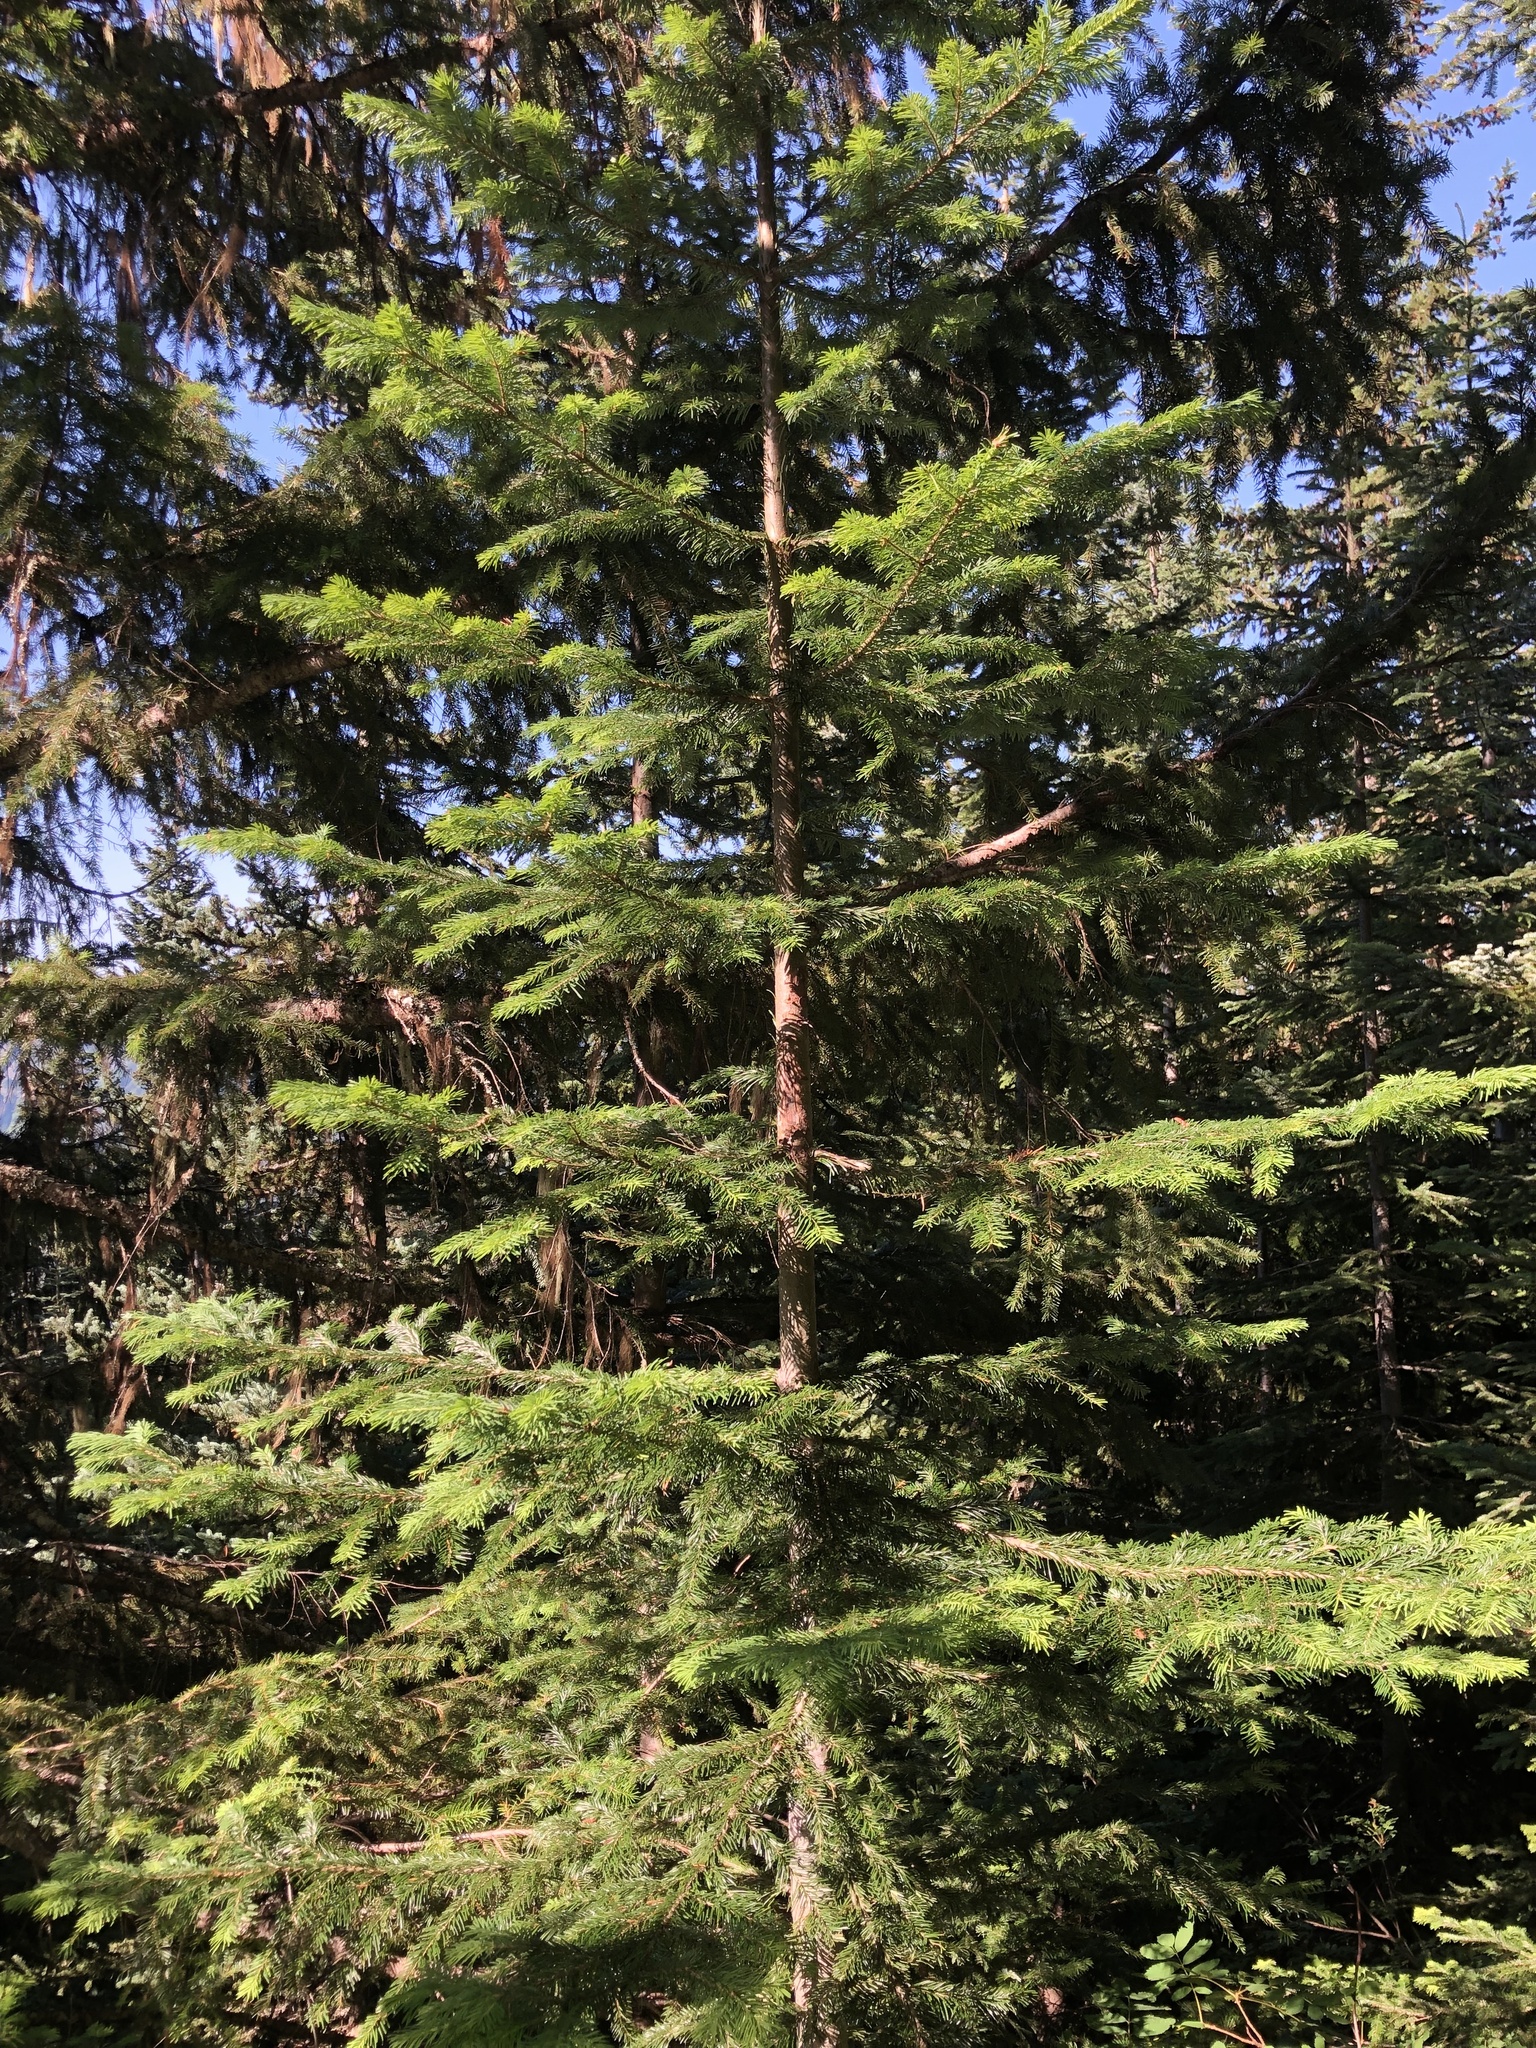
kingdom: Plantae
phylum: Tracheophyta
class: Pinopsida
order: Pinales
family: Pinaceae
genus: Abies
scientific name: Abies amabilis
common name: Pacific silver fir
